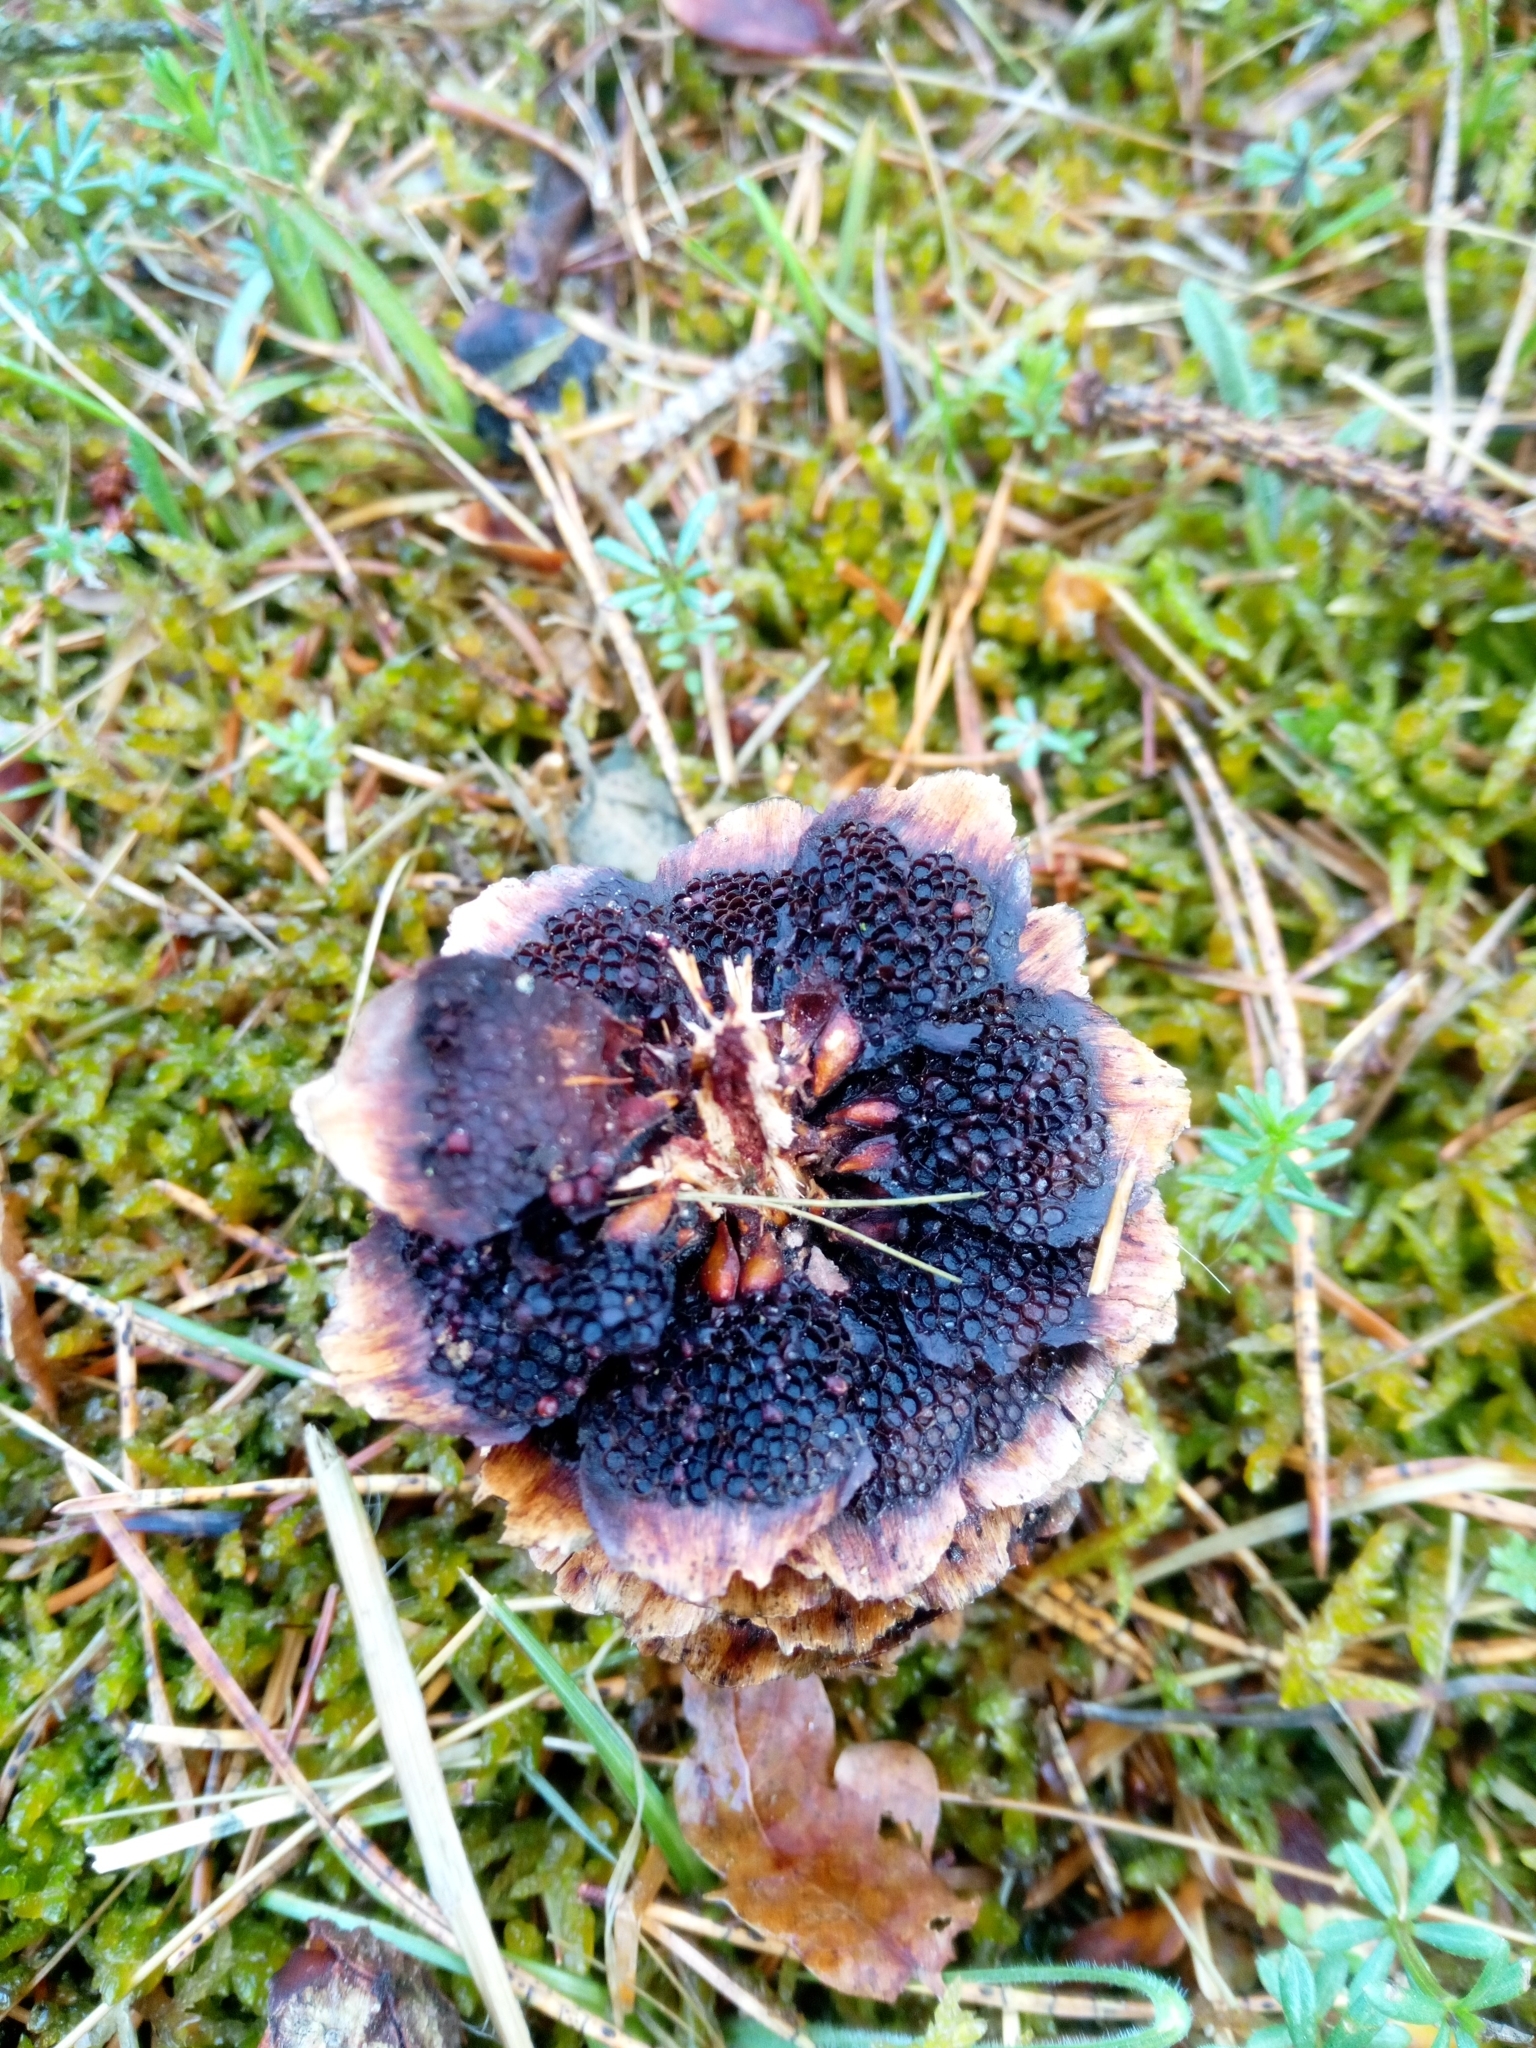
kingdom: Fungi
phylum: Basidiomycota
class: Pucciniomycetes
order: Pucciniales
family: Pucciniastraceae
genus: Thekopsora
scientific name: Thekopsora areolata
